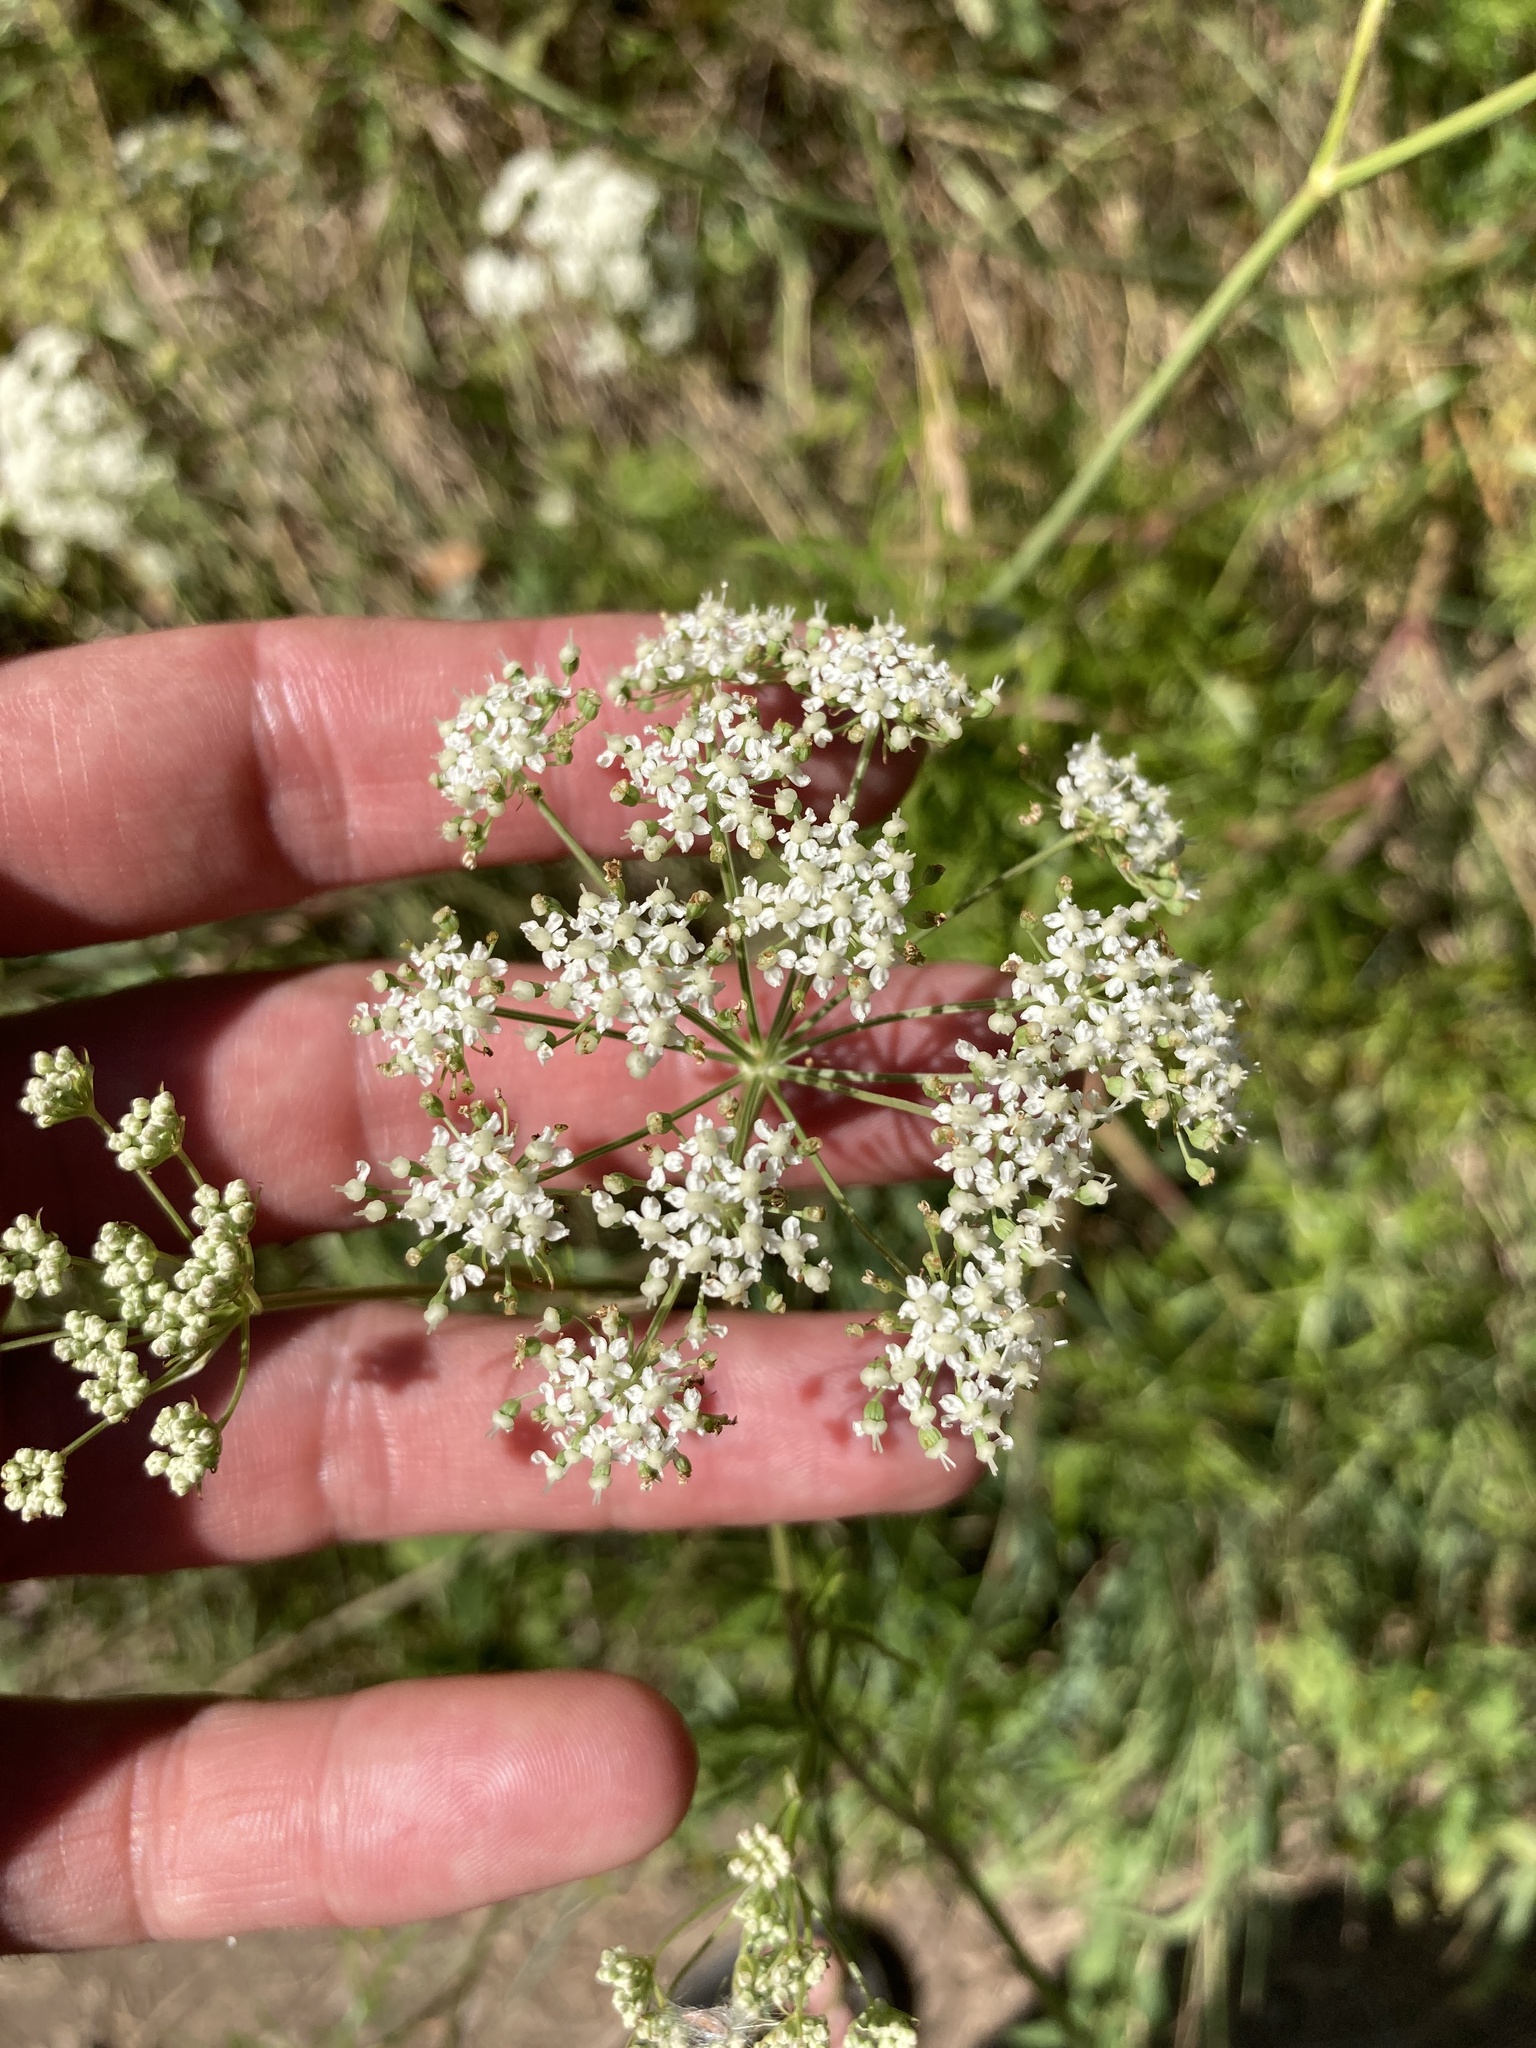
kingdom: Plantae
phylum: Tracheophyta
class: Magnoliopsida
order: Apiales
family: Apiaceae
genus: Cenolophium
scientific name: Cenolophium fischeri
